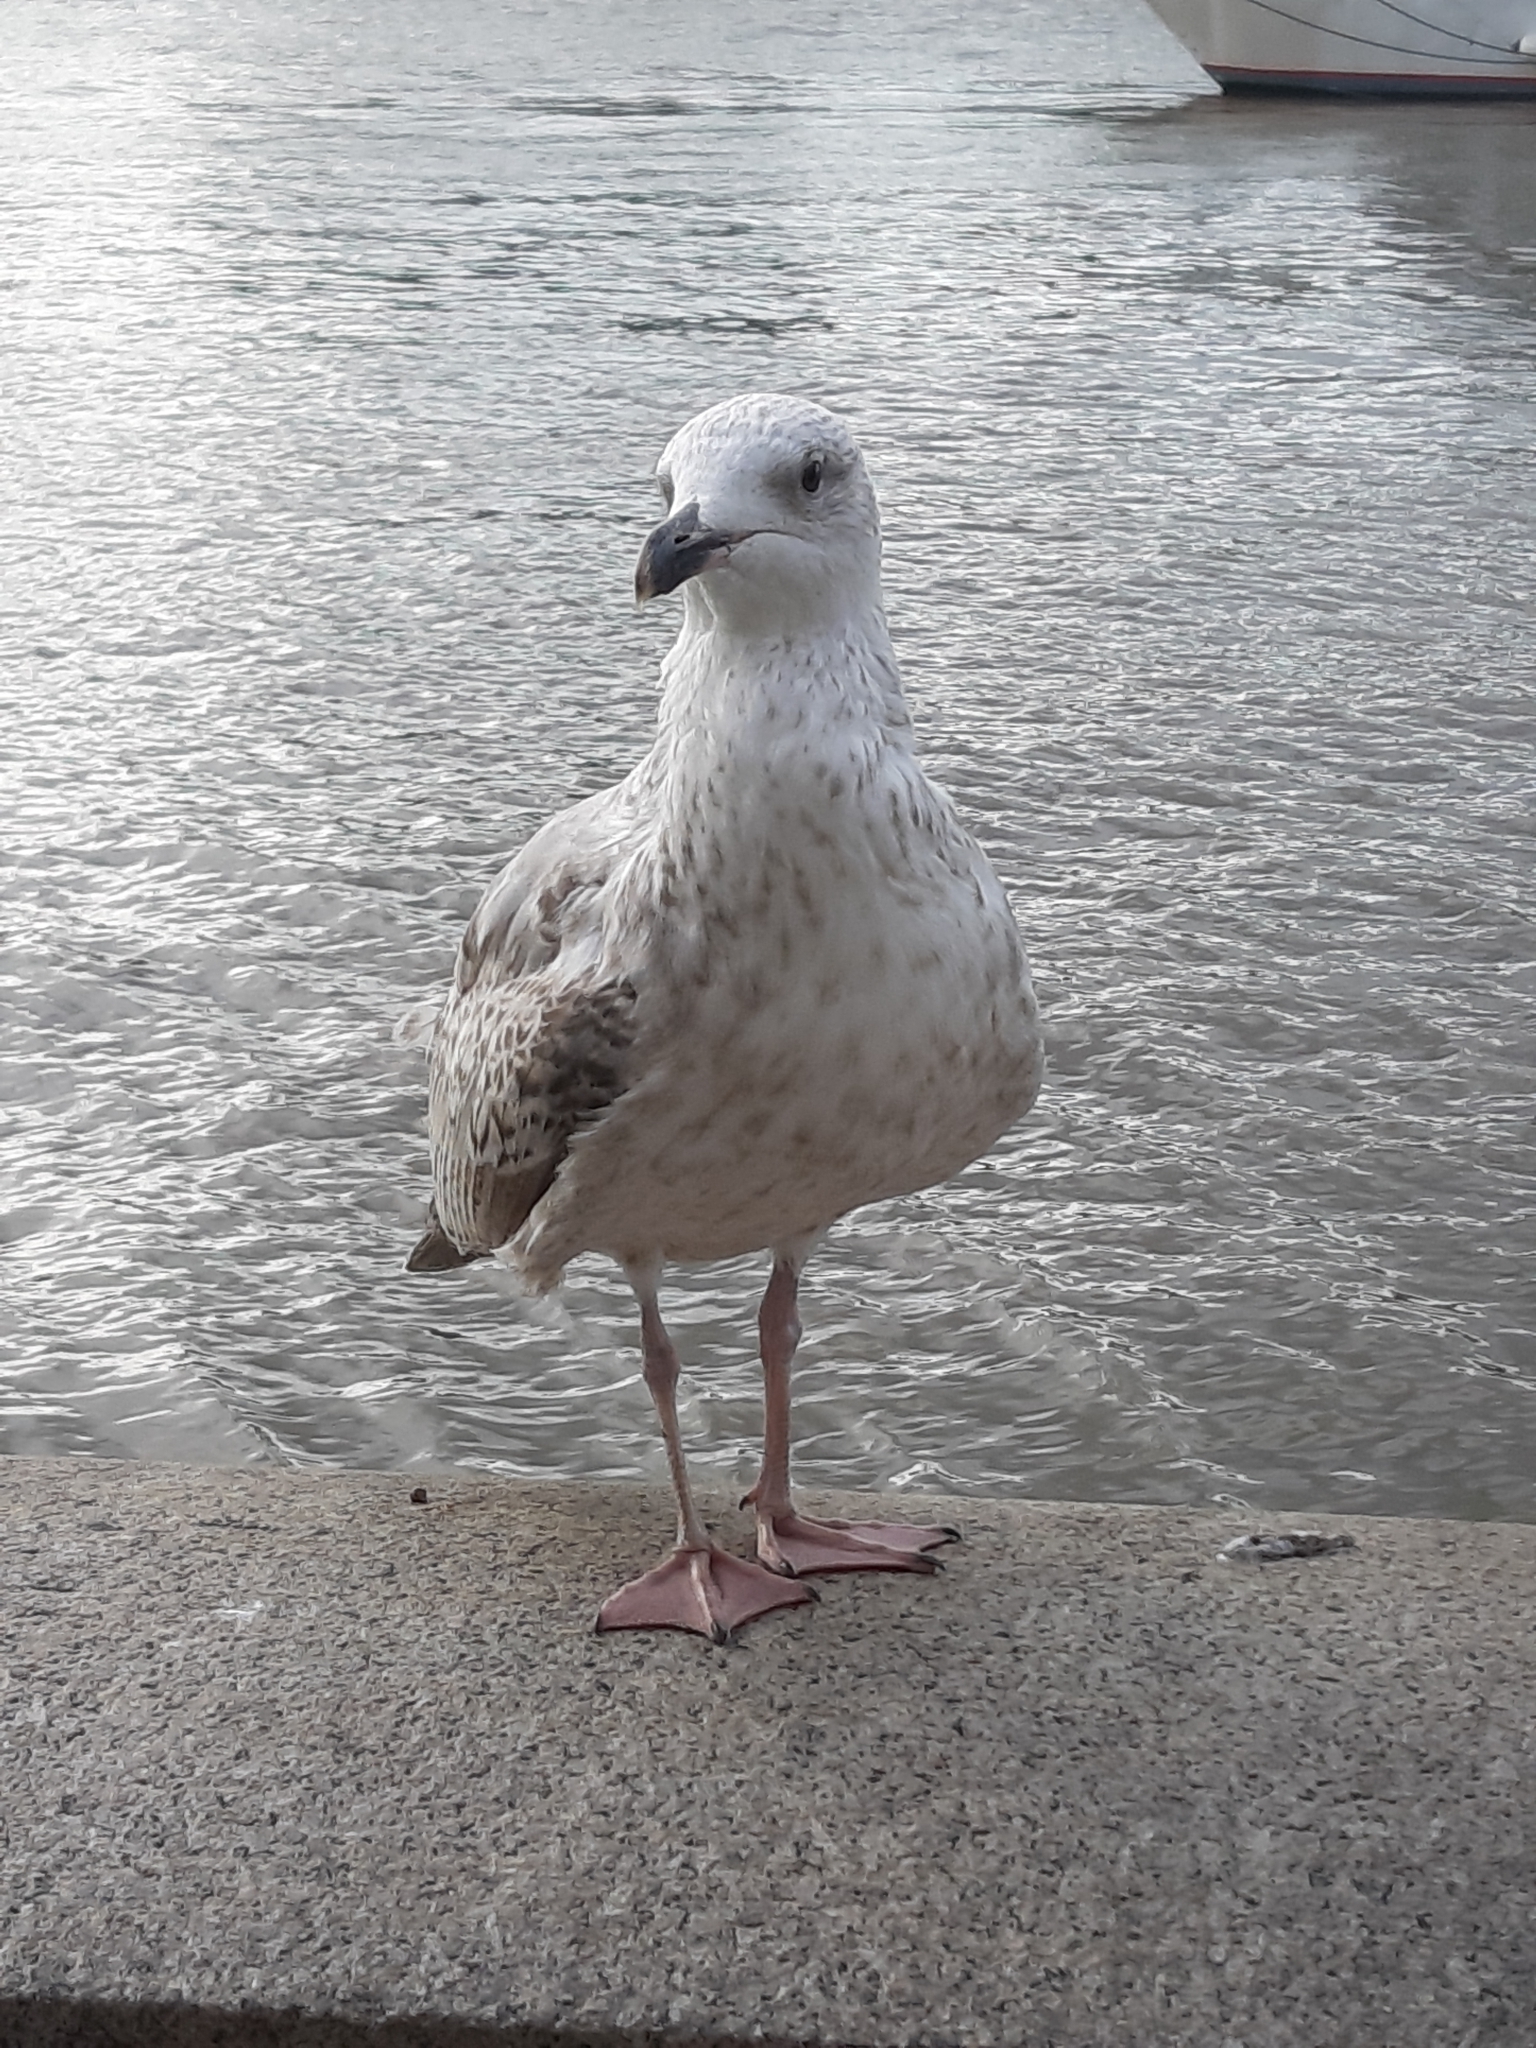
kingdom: Animalia
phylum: Chordata
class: Aves
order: Charadriiformes
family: Laridae
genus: Larus
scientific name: Larus argentatus
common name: Herring gull
